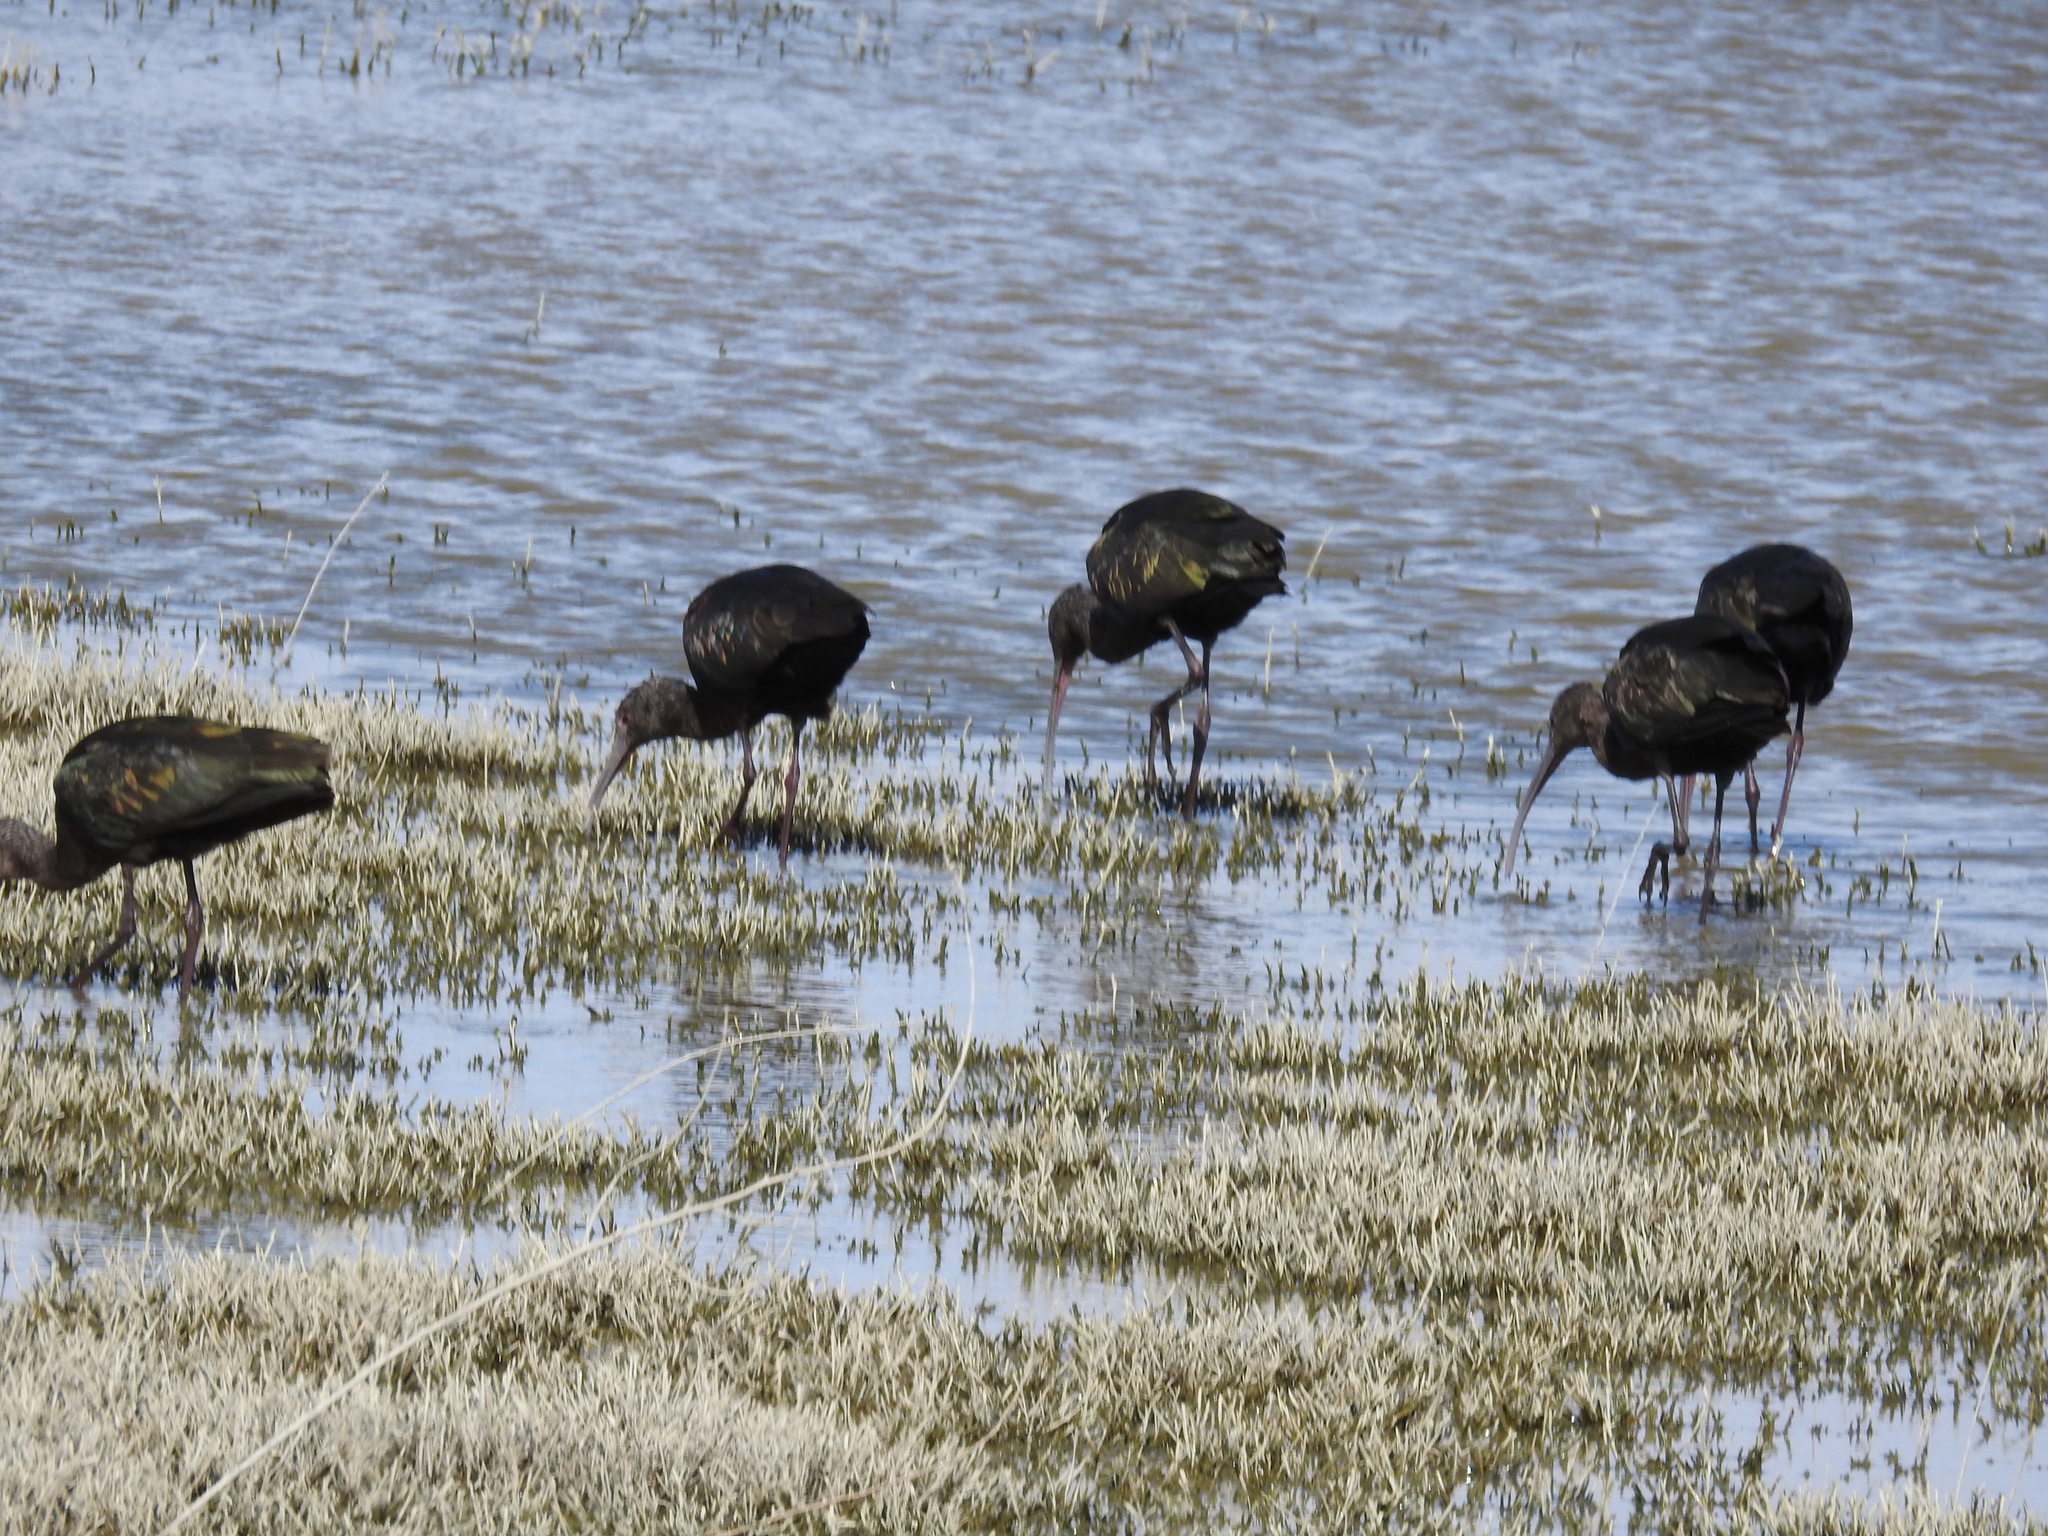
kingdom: Animalia
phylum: Chordata
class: Aves
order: Pelecaniformes
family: Threskiornithidae
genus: Plegadis
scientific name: Plegadis chihi
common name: White-faced ibis
